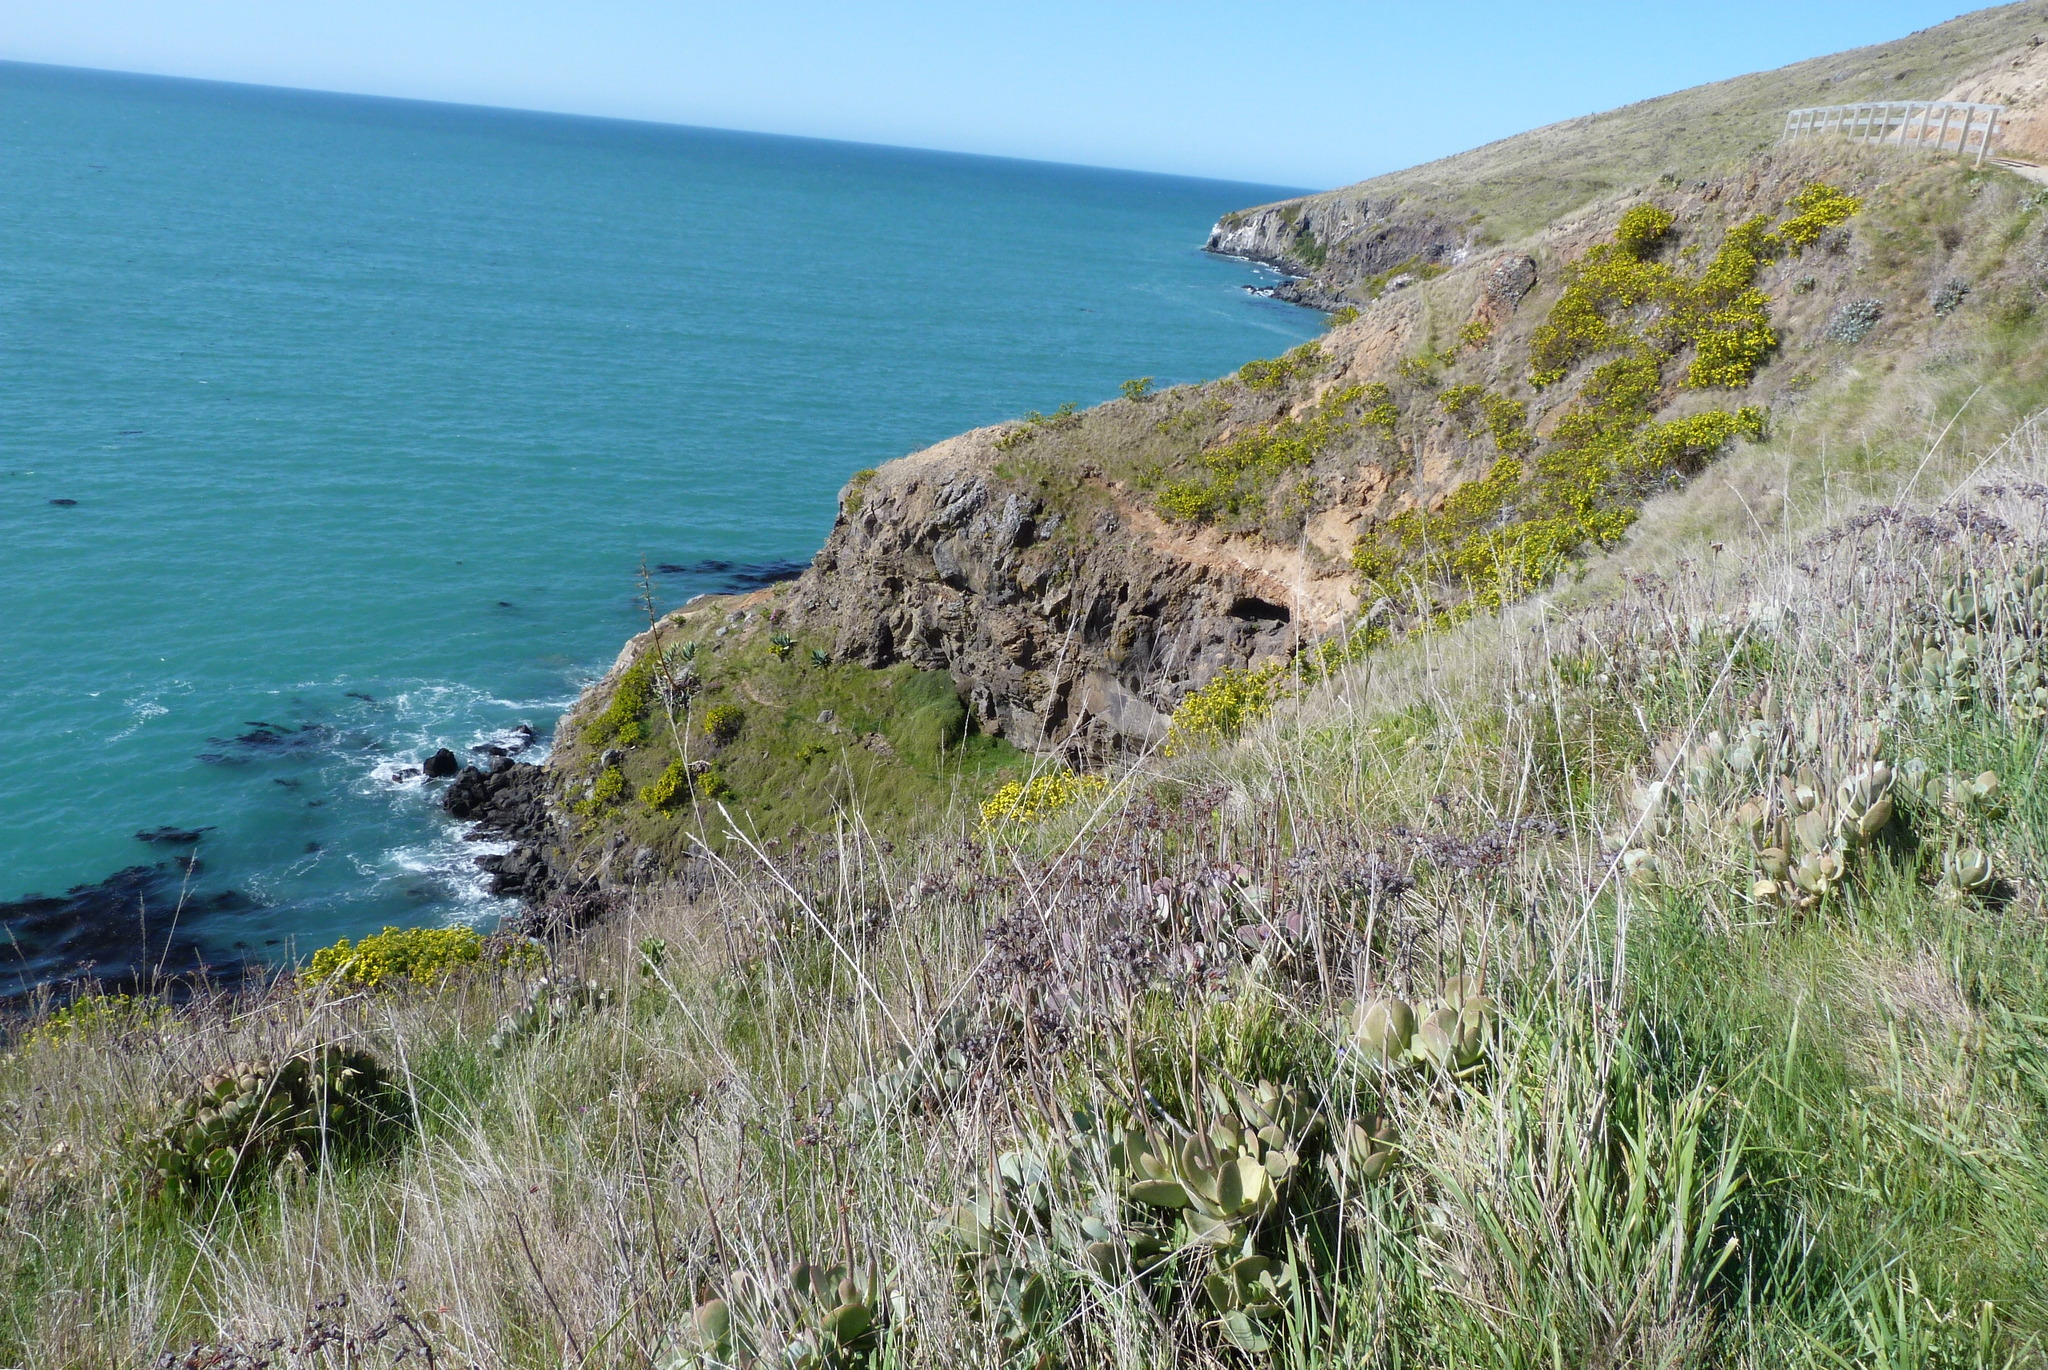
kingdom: Plantae
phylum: Tracheophyta
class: Magnoliopsida
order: Asterales
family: Asteraceae
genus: Osteospermum
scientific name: Osteospermum moniliferum
